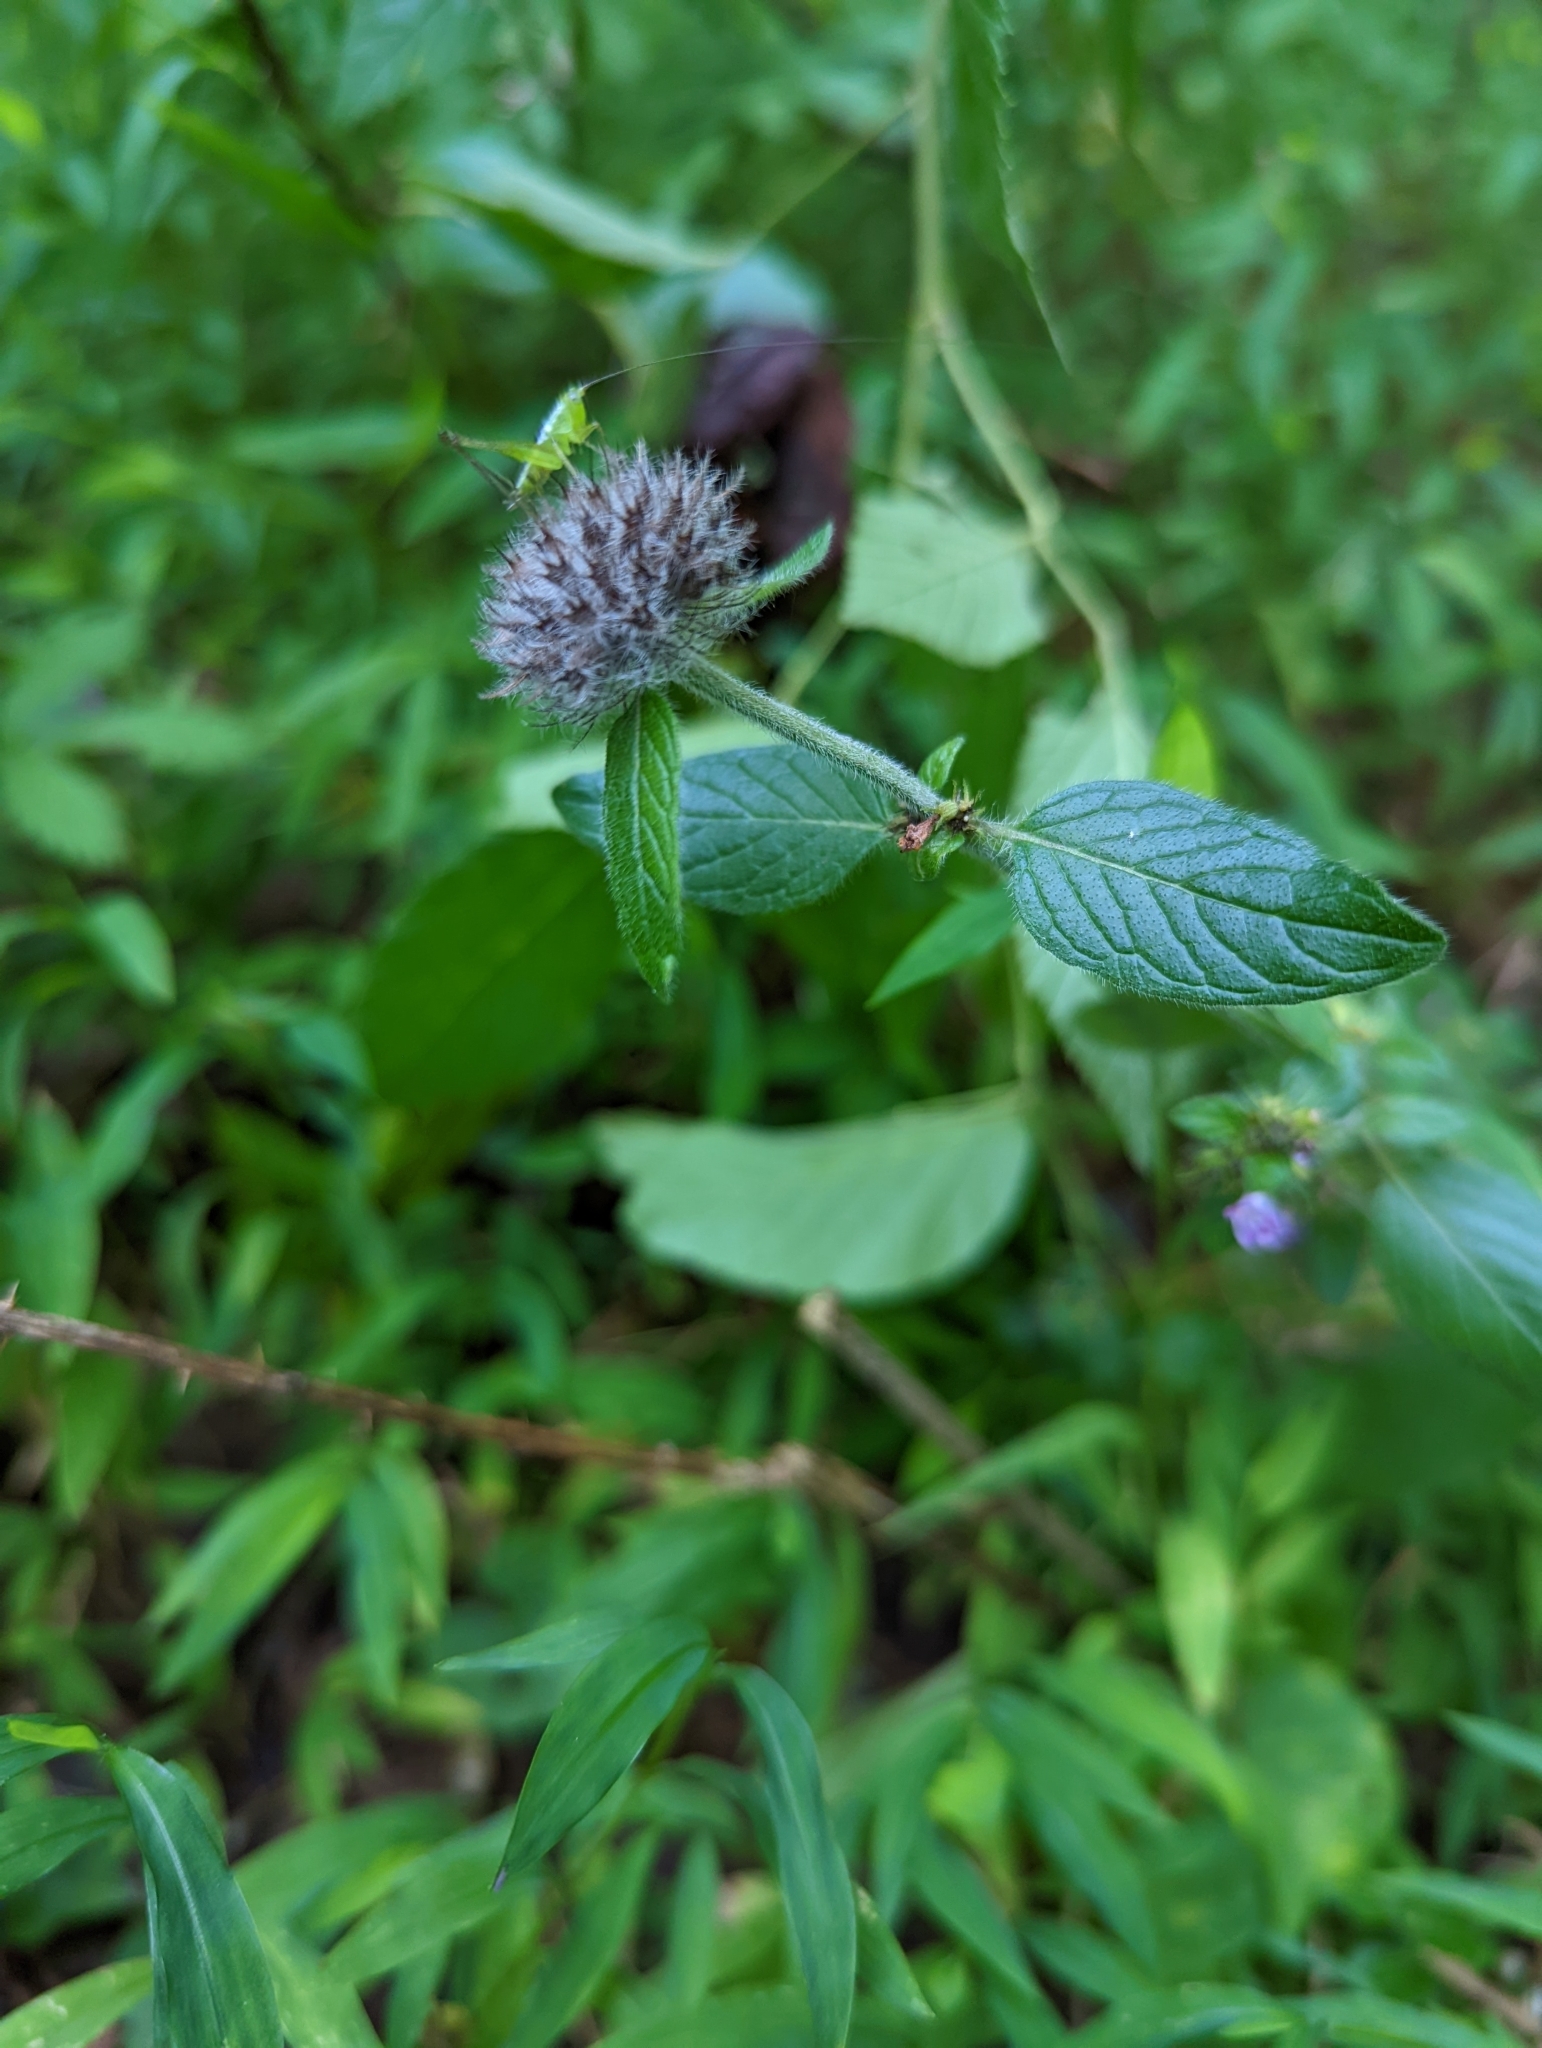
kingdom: Plantae
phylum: Tracheophyta
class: Magnoliopsida
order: Lamiales
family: Lamiaceae
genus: Clinopodium
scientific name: Clinopodium vulgare
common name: Wild basil
